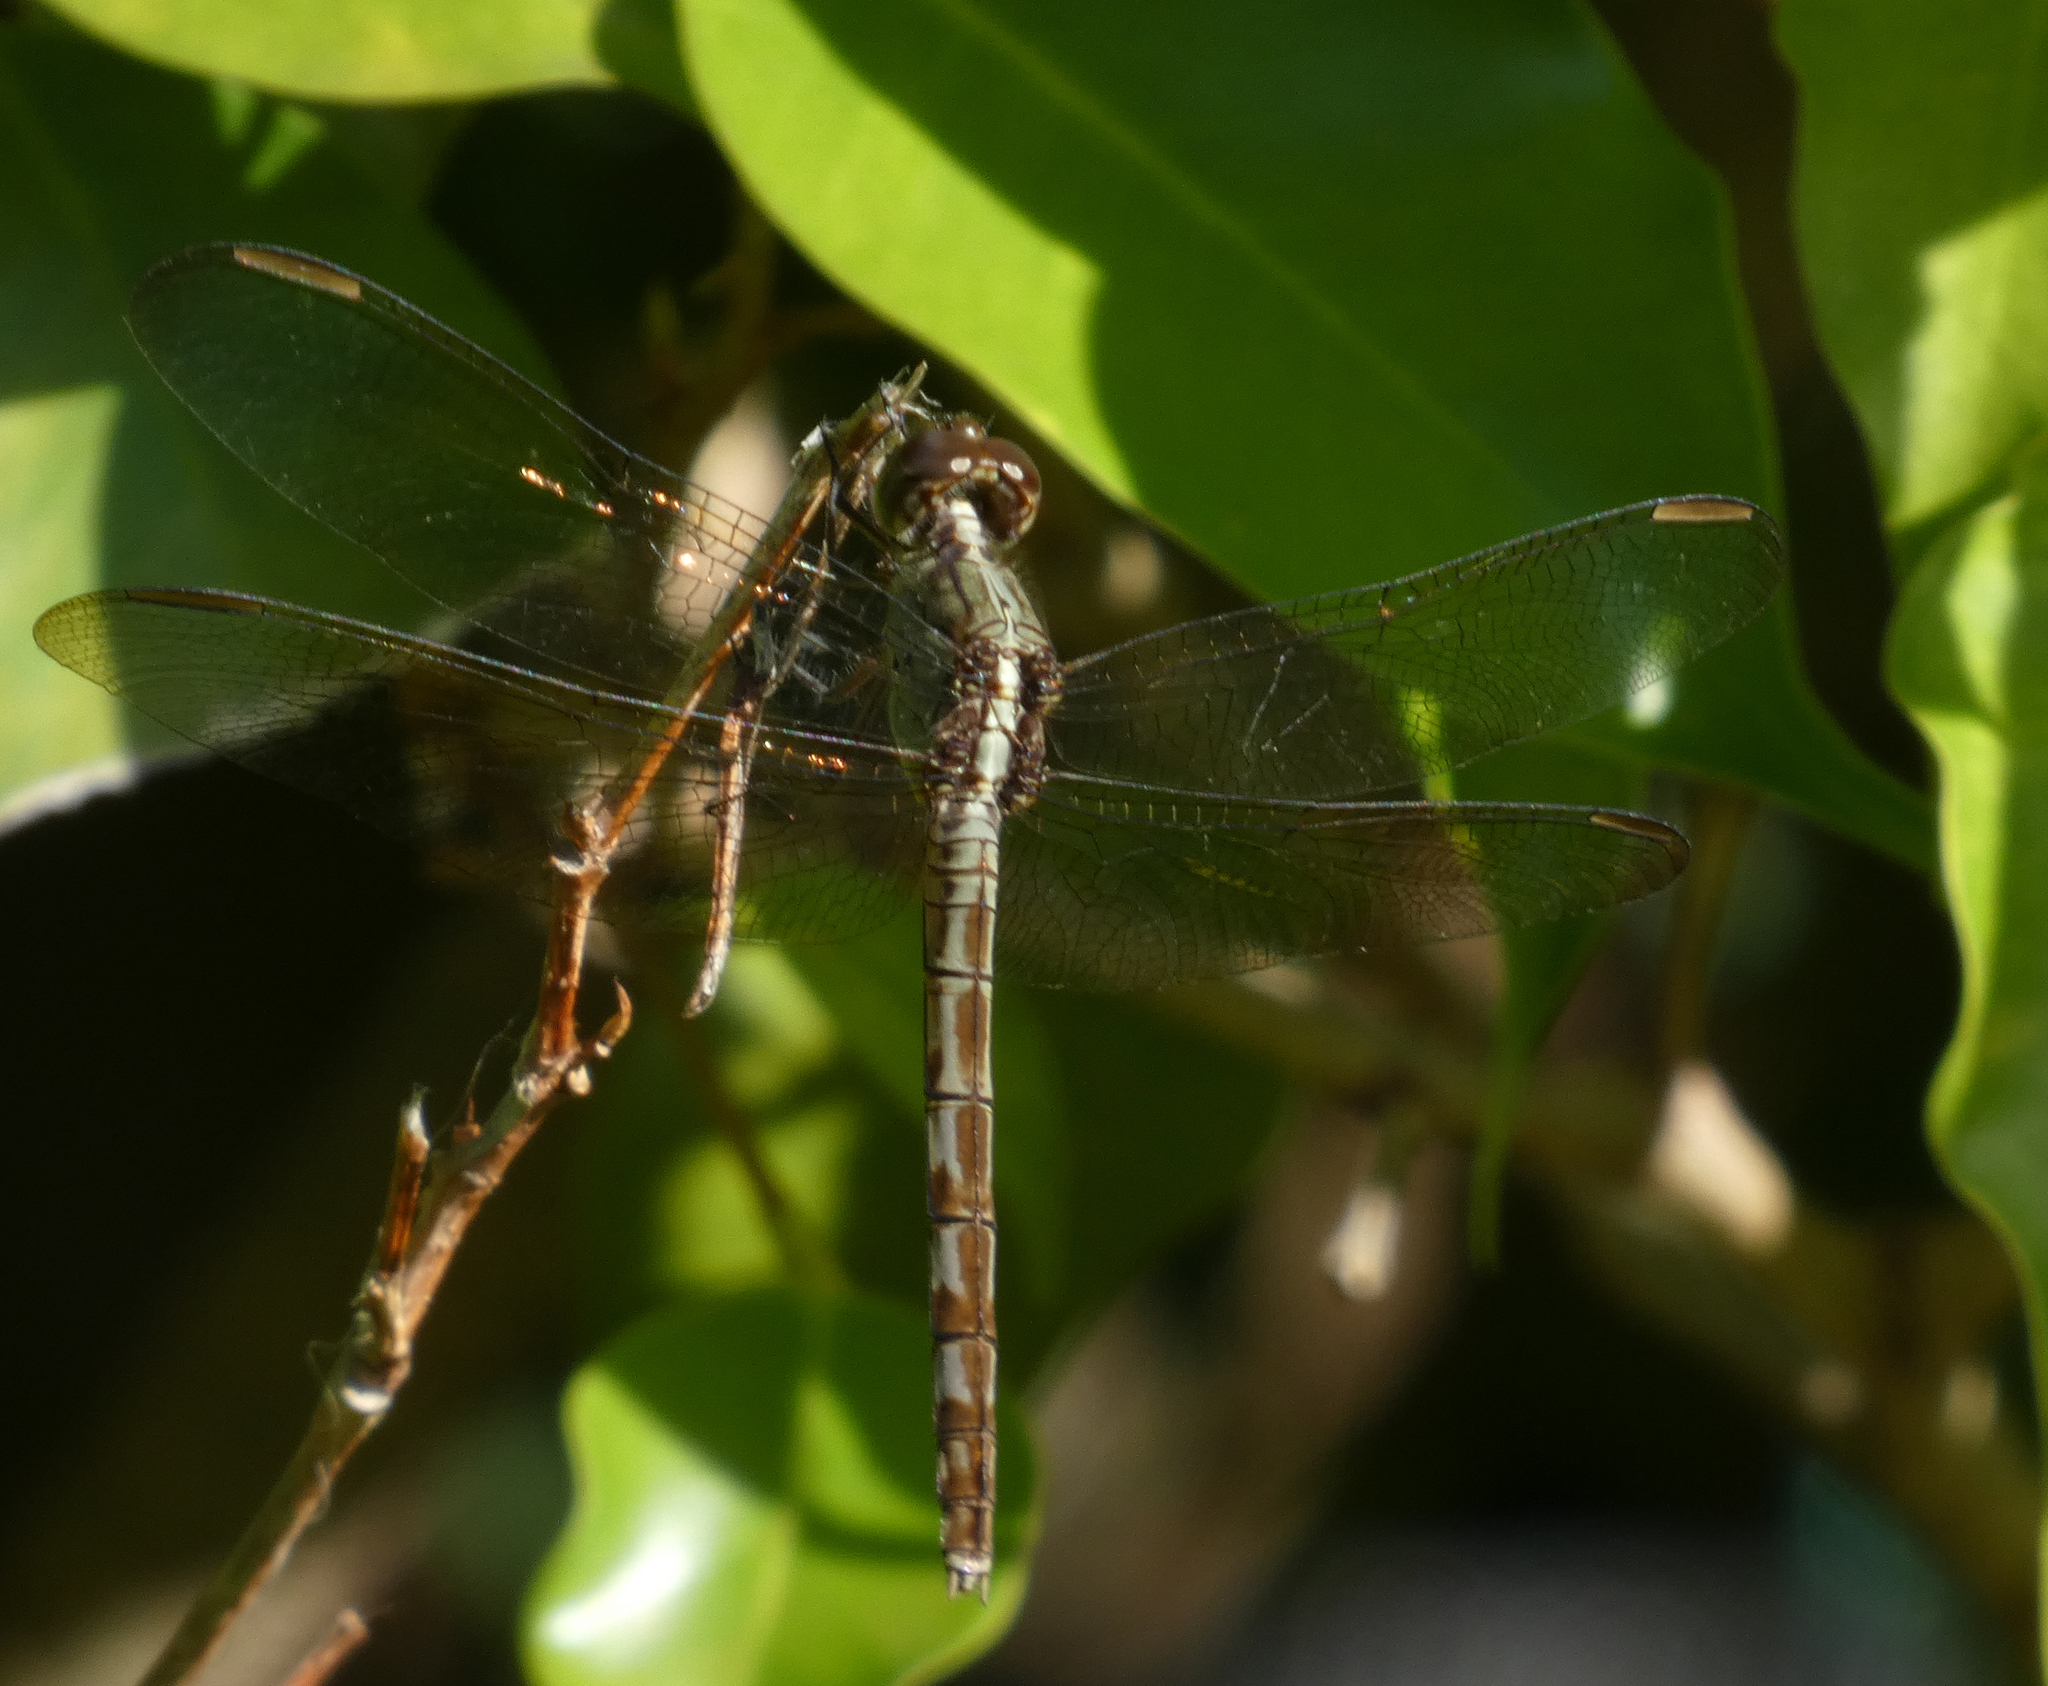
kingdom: Animalia
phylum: Arthropoda
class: Insecta
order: Odonata
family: Libellulidae
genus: Erythrodiplax
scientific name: Erythrodiplax umbrata
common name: Band-winged dragonlet
